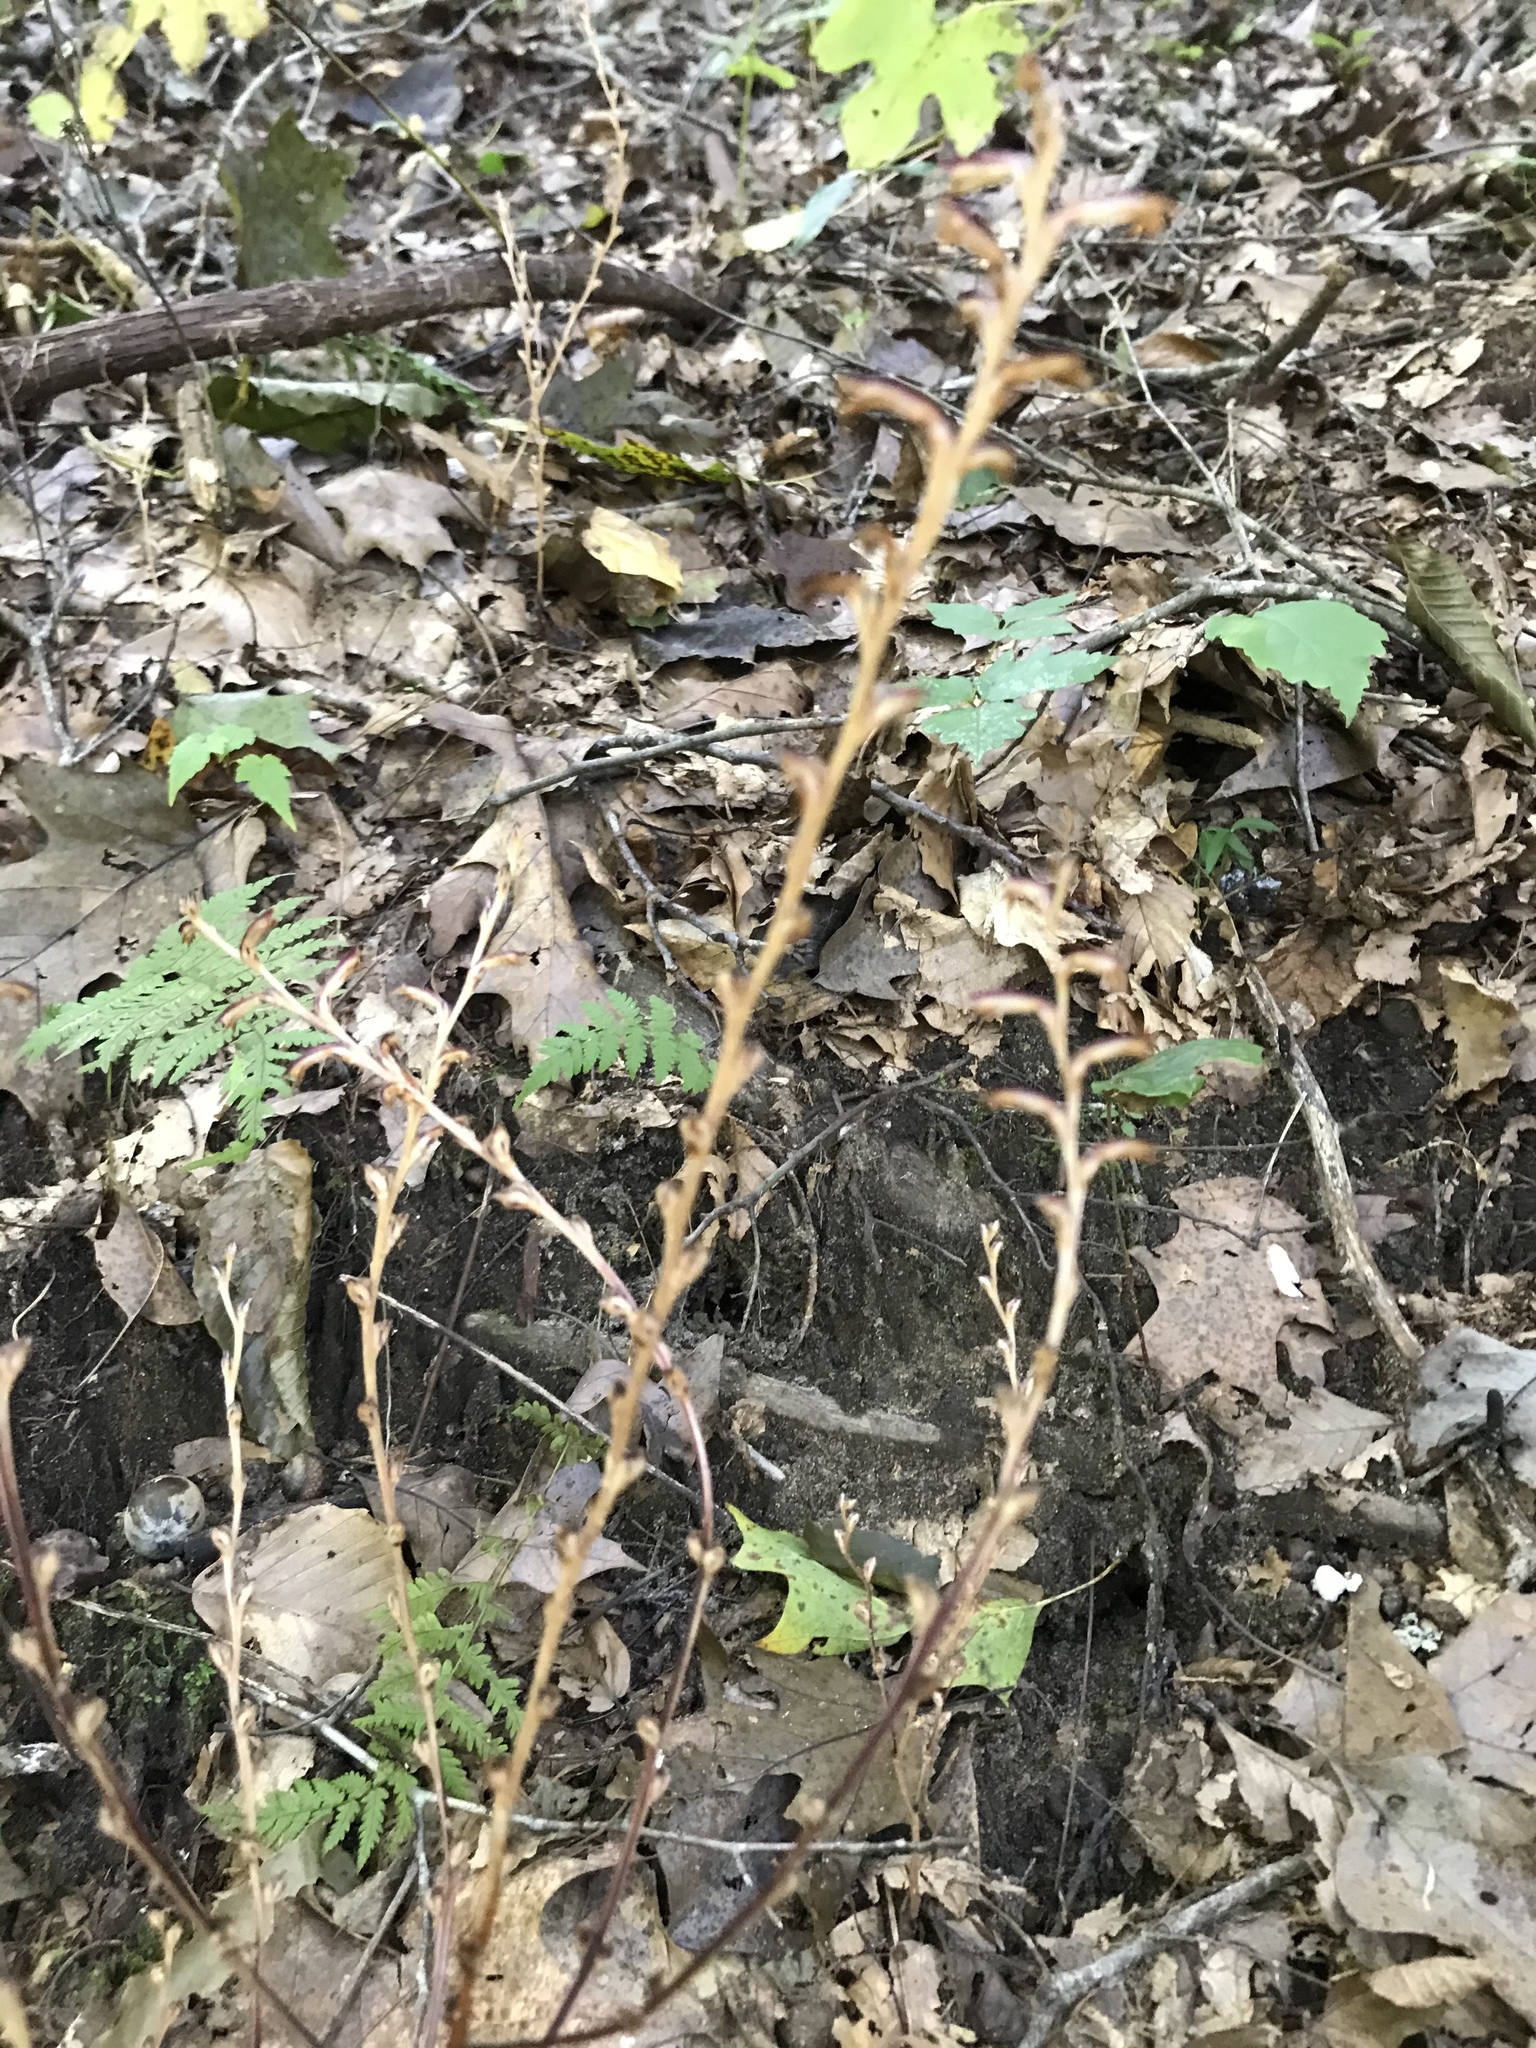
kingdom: Plantae
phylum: Tracheophyta
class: Magnoliopsida
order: Lamiales
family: Orobanchaceae
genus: Epifagus
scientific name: Epifagus virginiana
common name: Beechdrops
